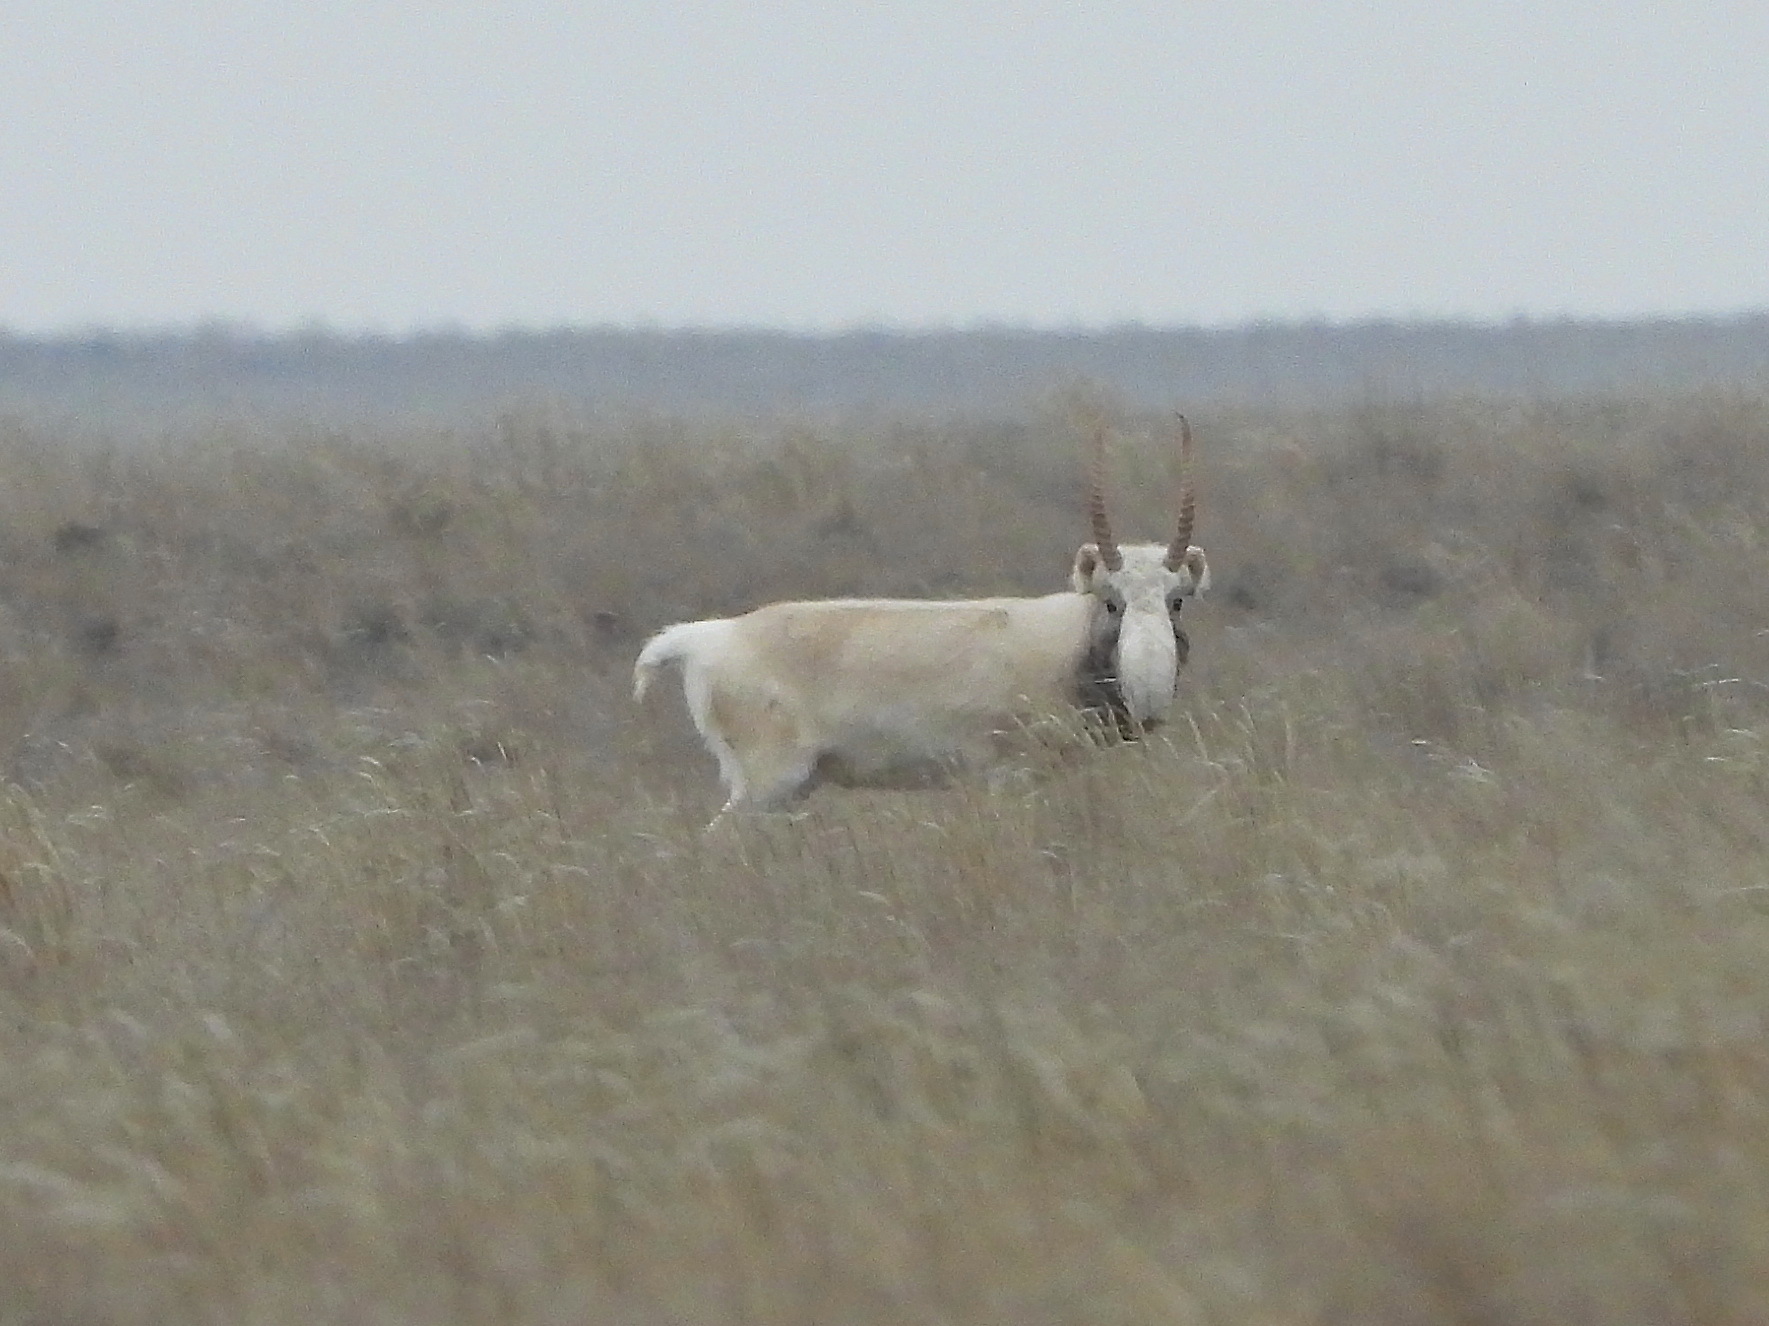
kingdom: Animalia
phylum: Chordata
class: Mammalia
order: Artiodactyla
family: Bovidae
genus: Saiga
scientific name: Saiga tatarica
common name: Saiga
